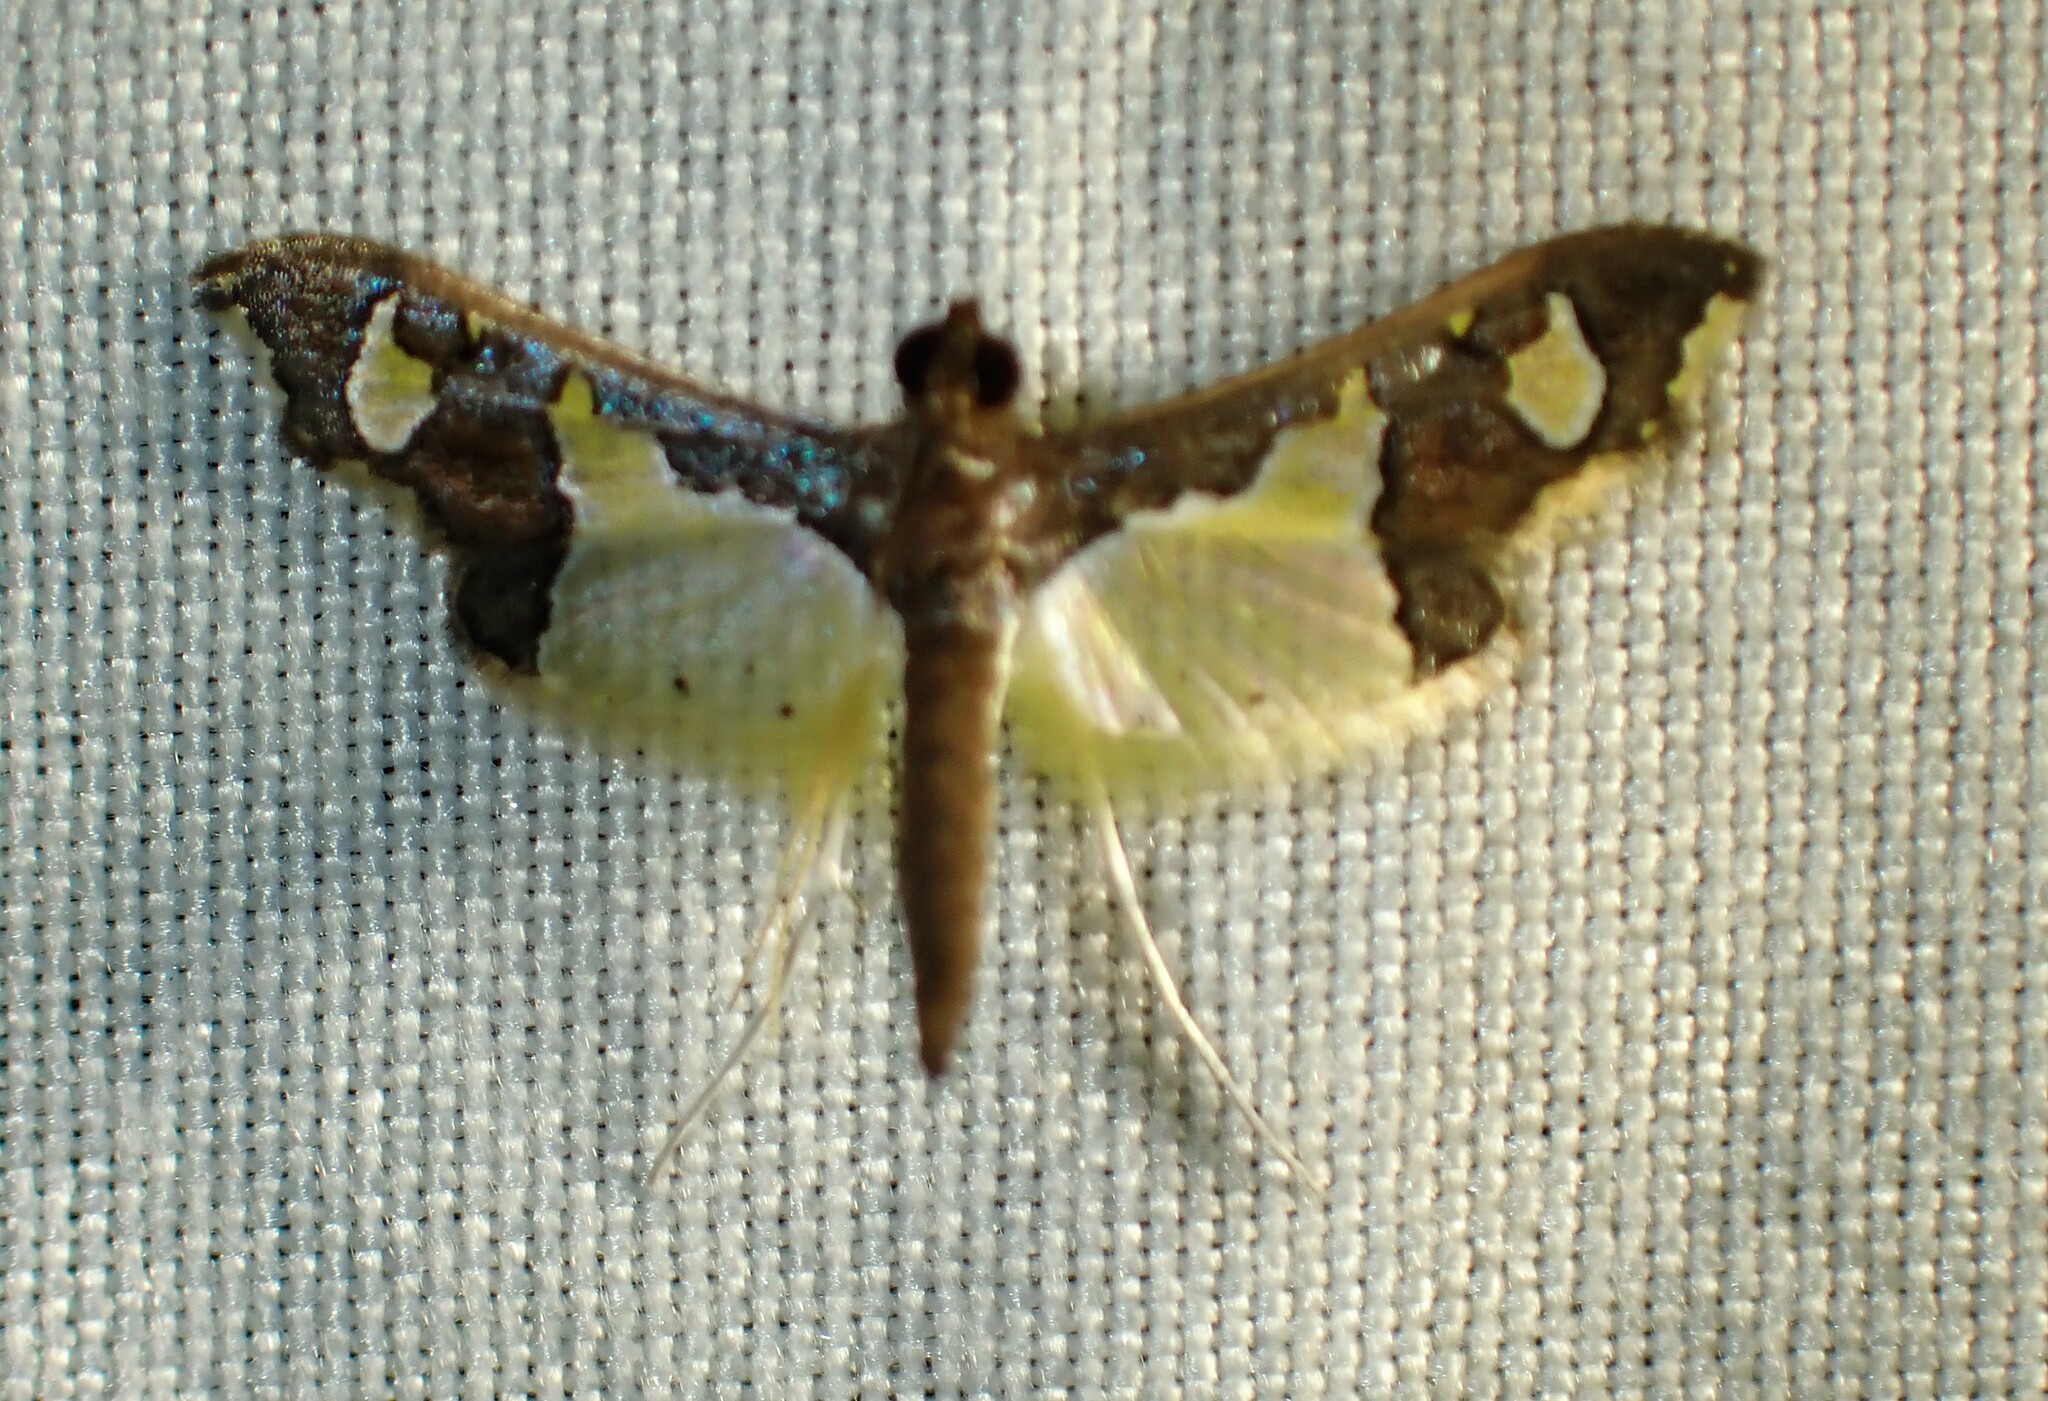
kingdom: Animalia
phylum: Arthropoda
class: Insecta
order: Lepidoptera
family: Crambidae
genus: Gonocausta
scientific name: Gonocausta zephyralis
